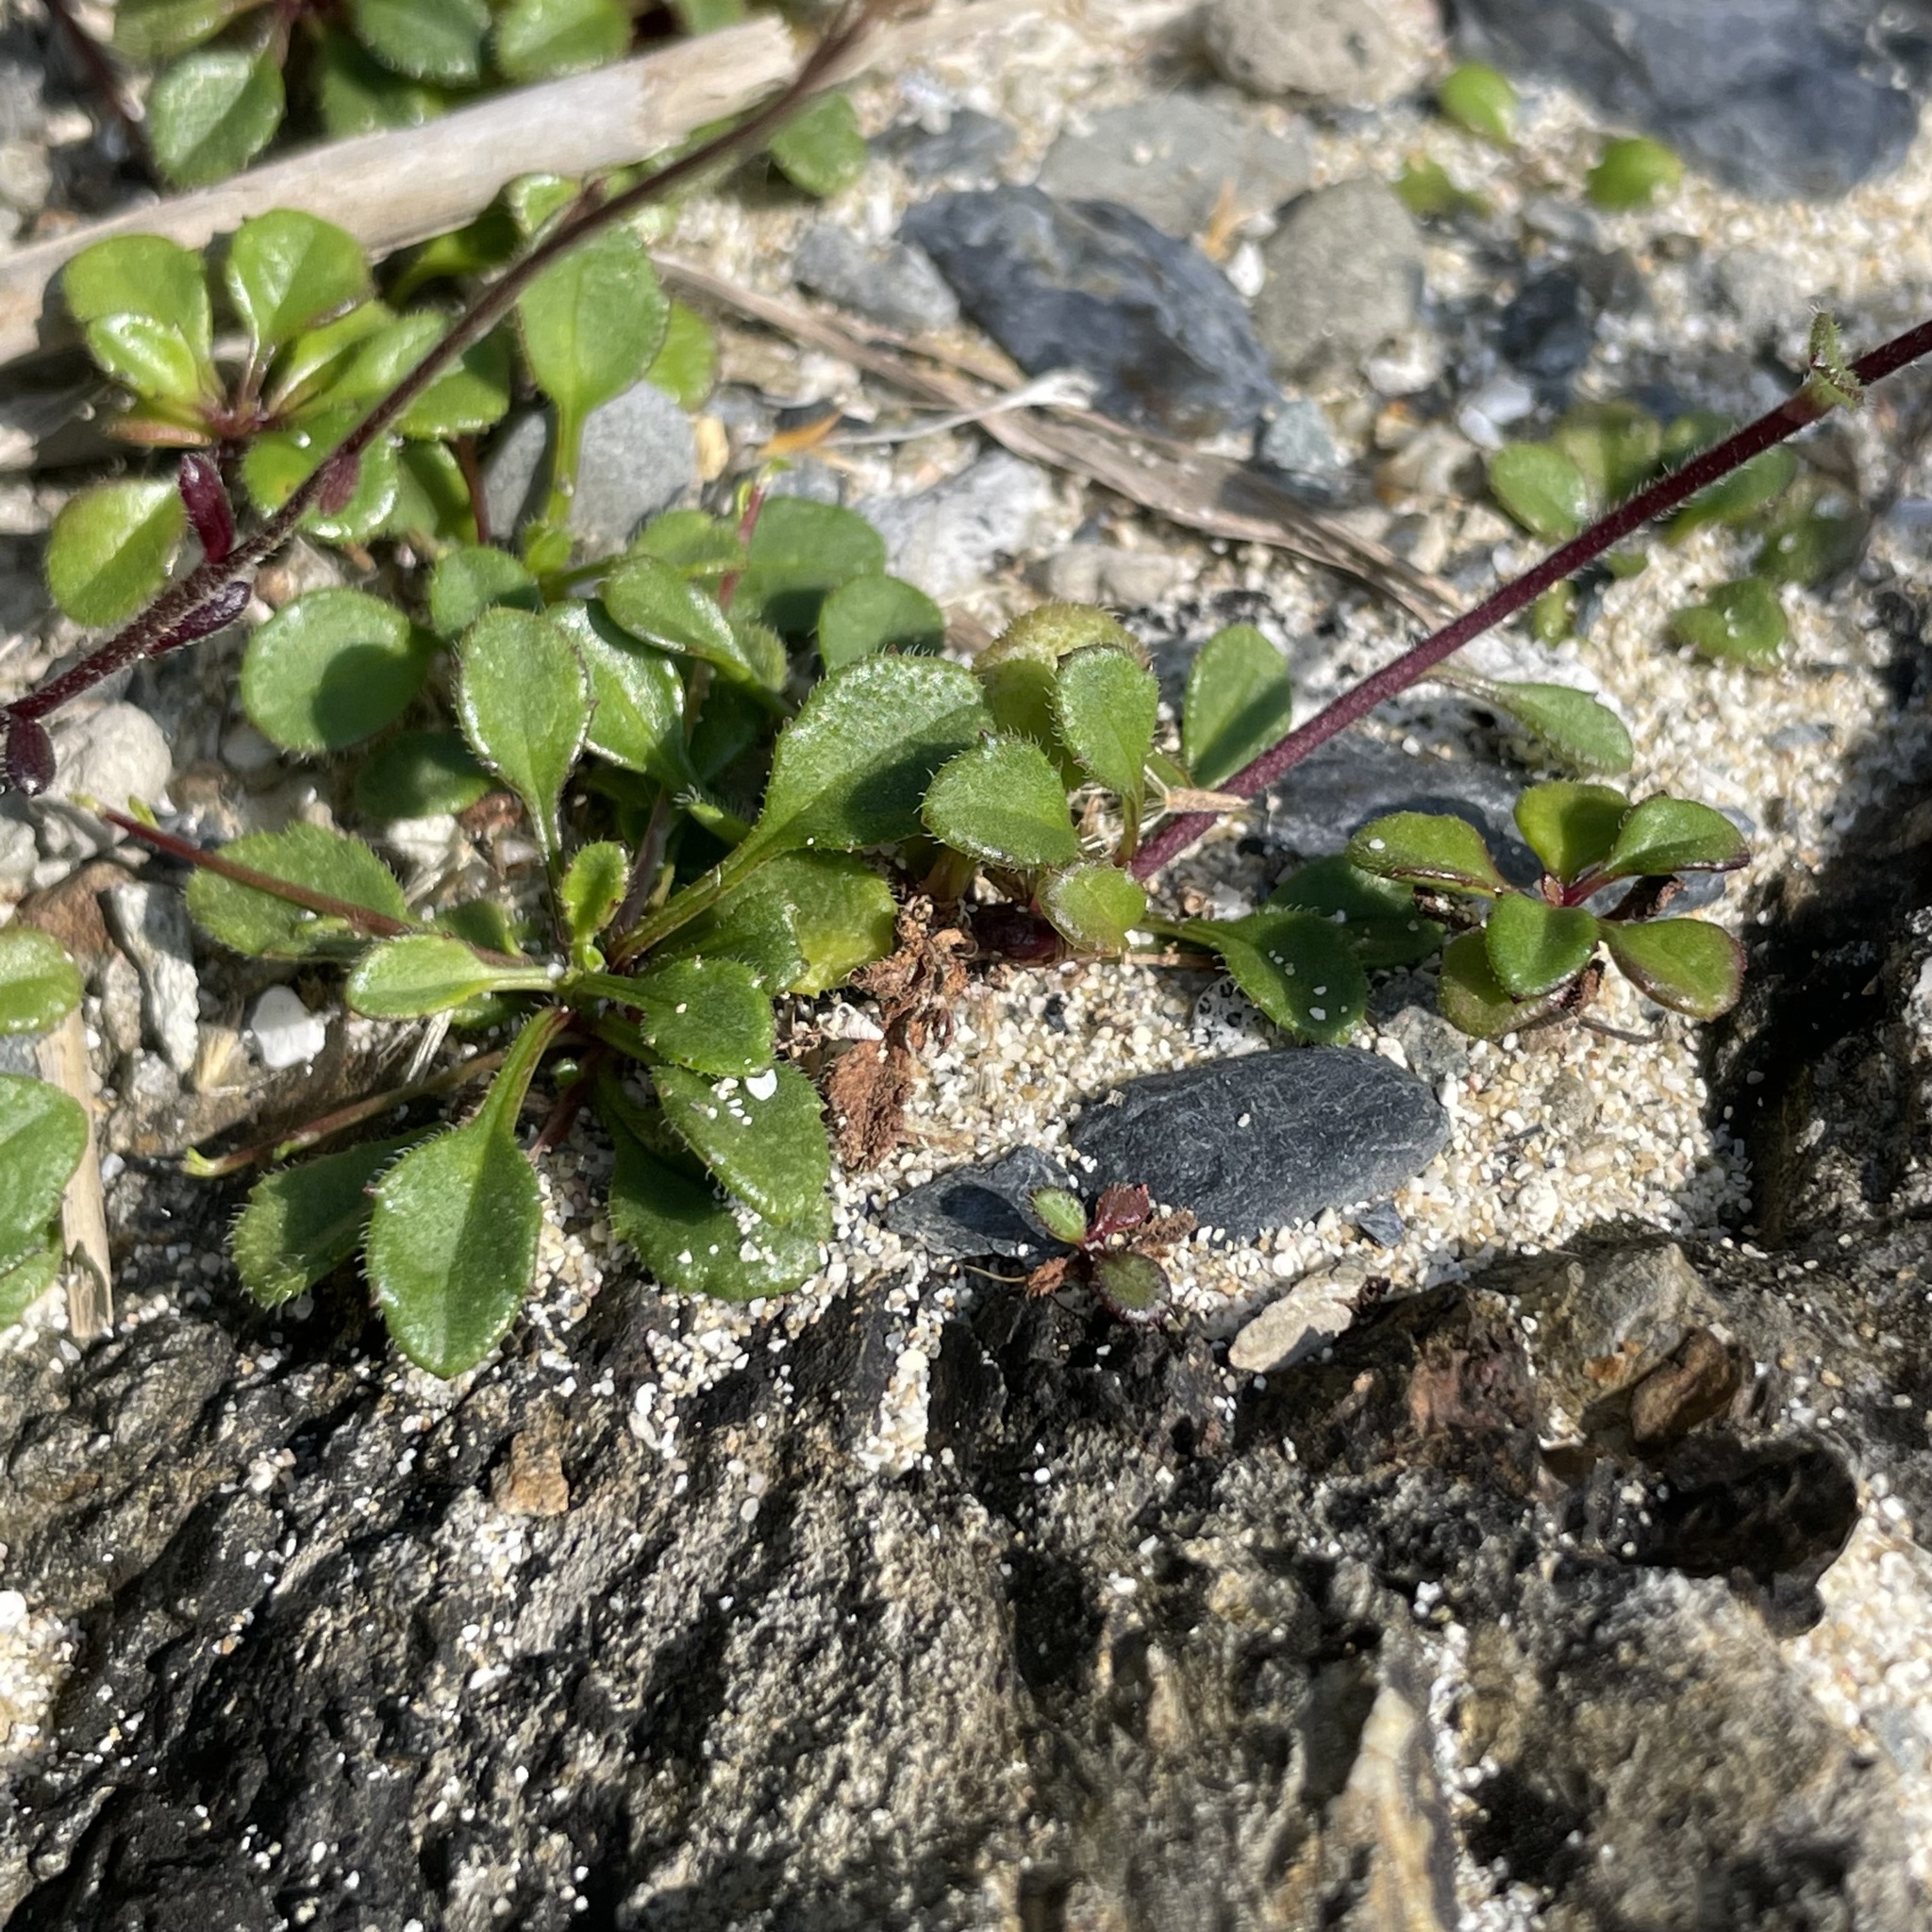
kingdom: Plantae
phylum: Tracheophyta
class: Magnoliopsida
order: Asterales
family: Asteraceae
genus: Aster
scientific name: Aster miyagii
